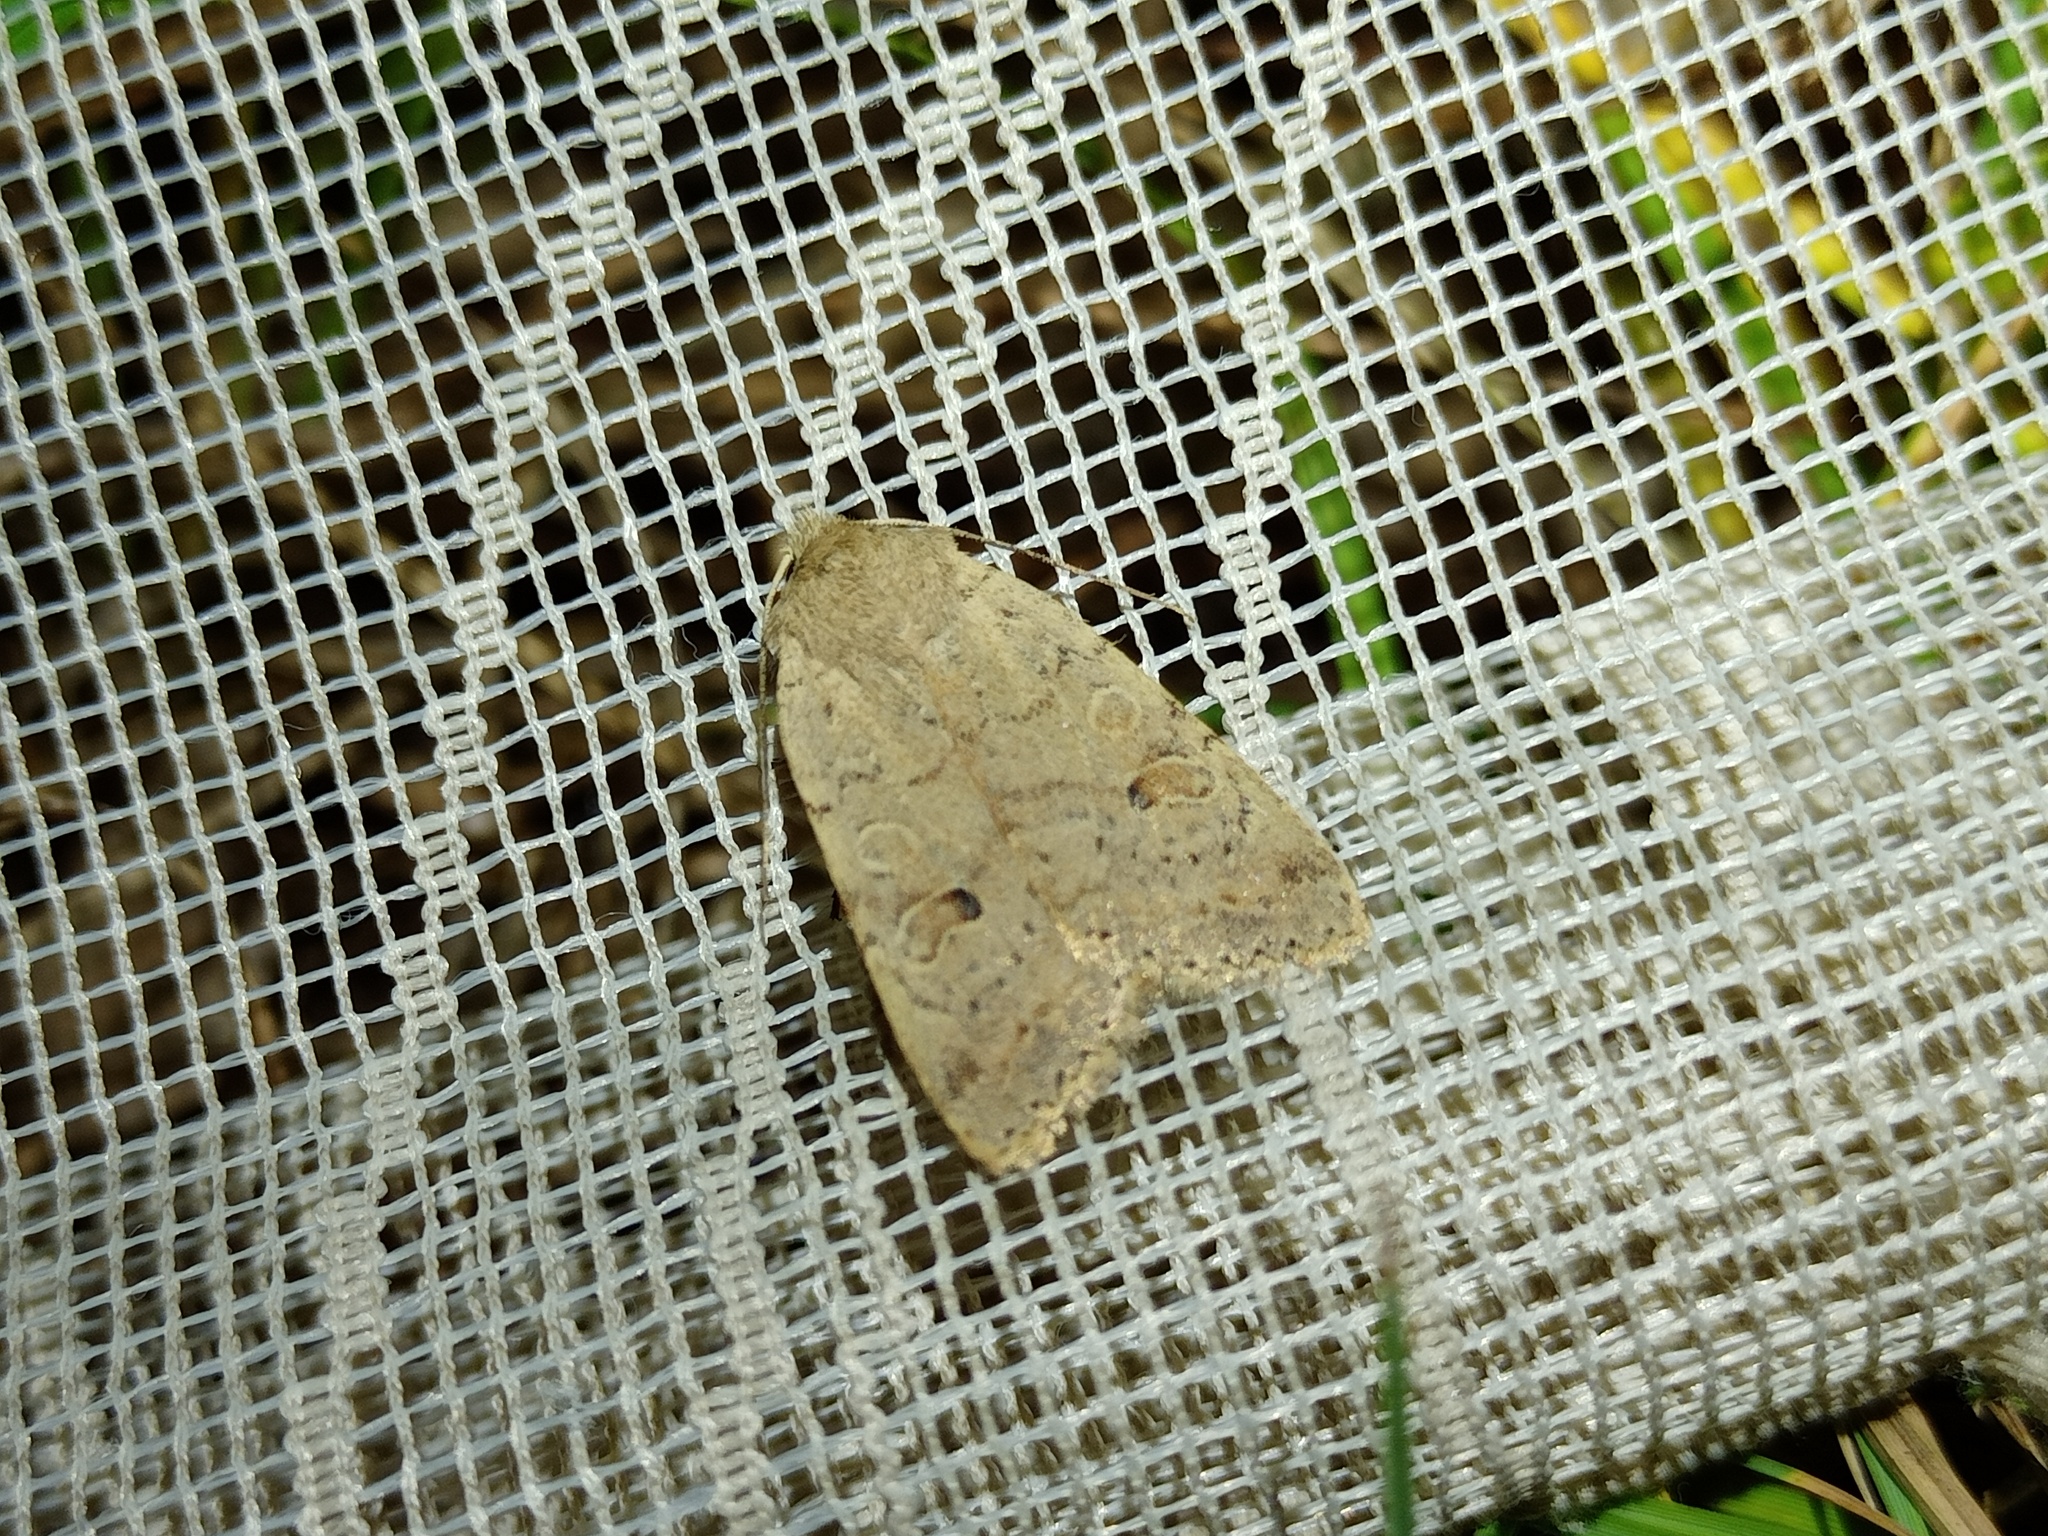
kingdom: Animalia
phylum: Arthropoda
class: Insecta
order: Lepidoptera
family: Noctuidae
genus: Agrochola
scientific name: Agrochola laevis
